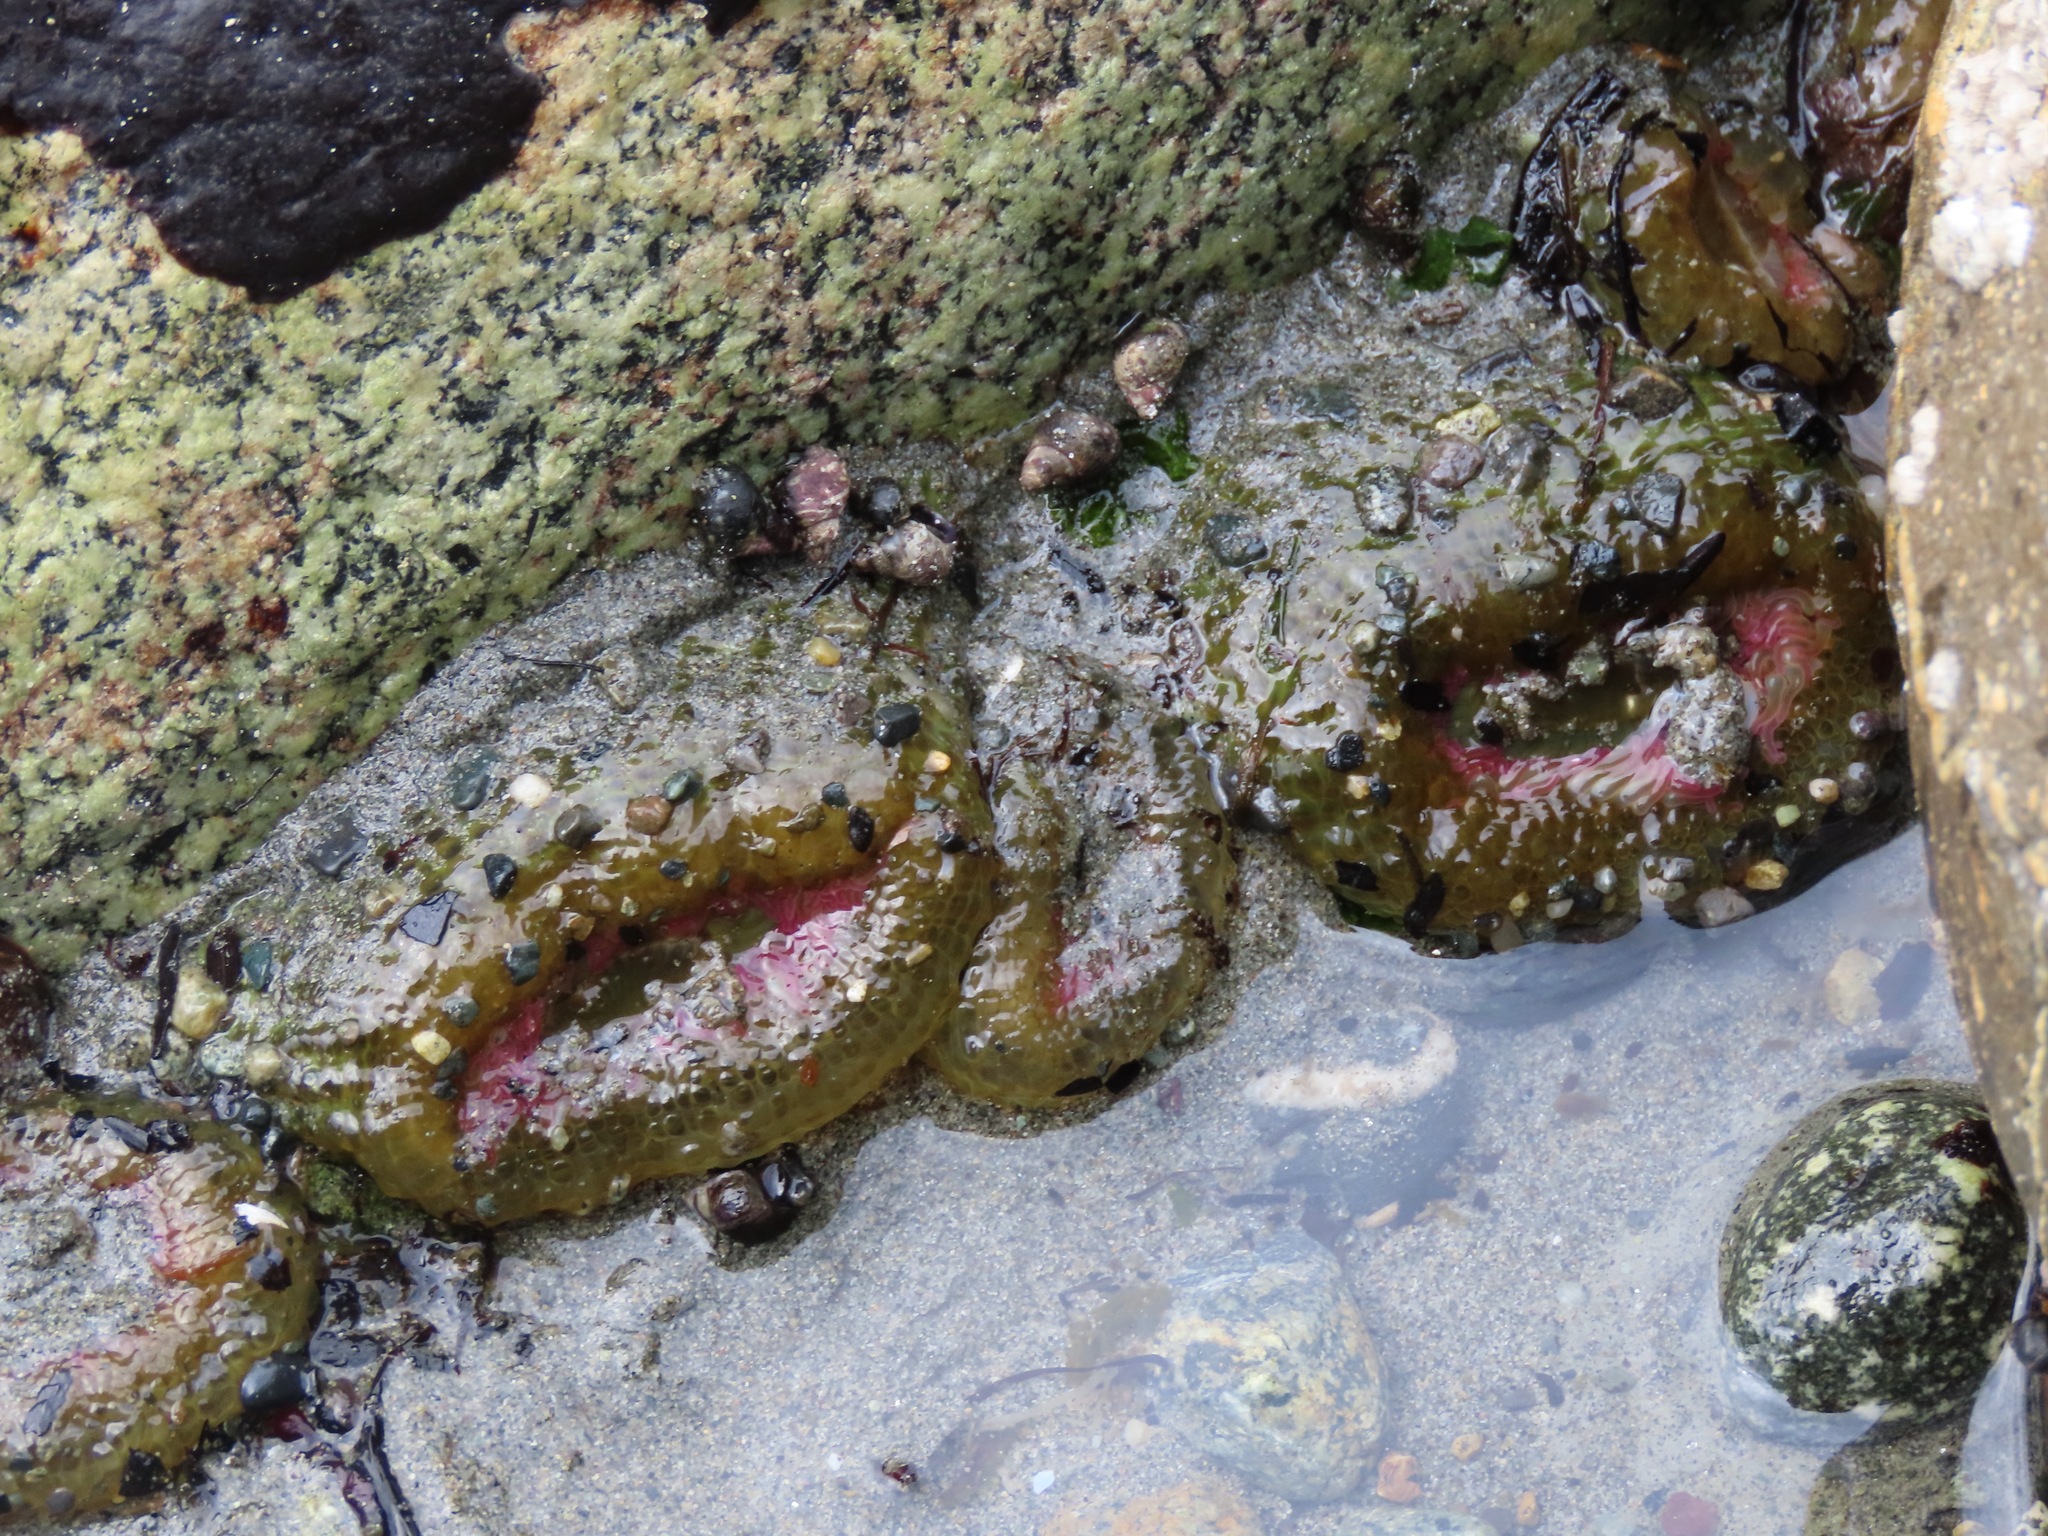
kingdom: Animalia
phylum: Cnidaria
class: Anthozoa
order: Actiniaria
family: Actiniidae
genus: Anthopleura
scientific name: Anthopleura elegantissima
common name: Clonal anemone
